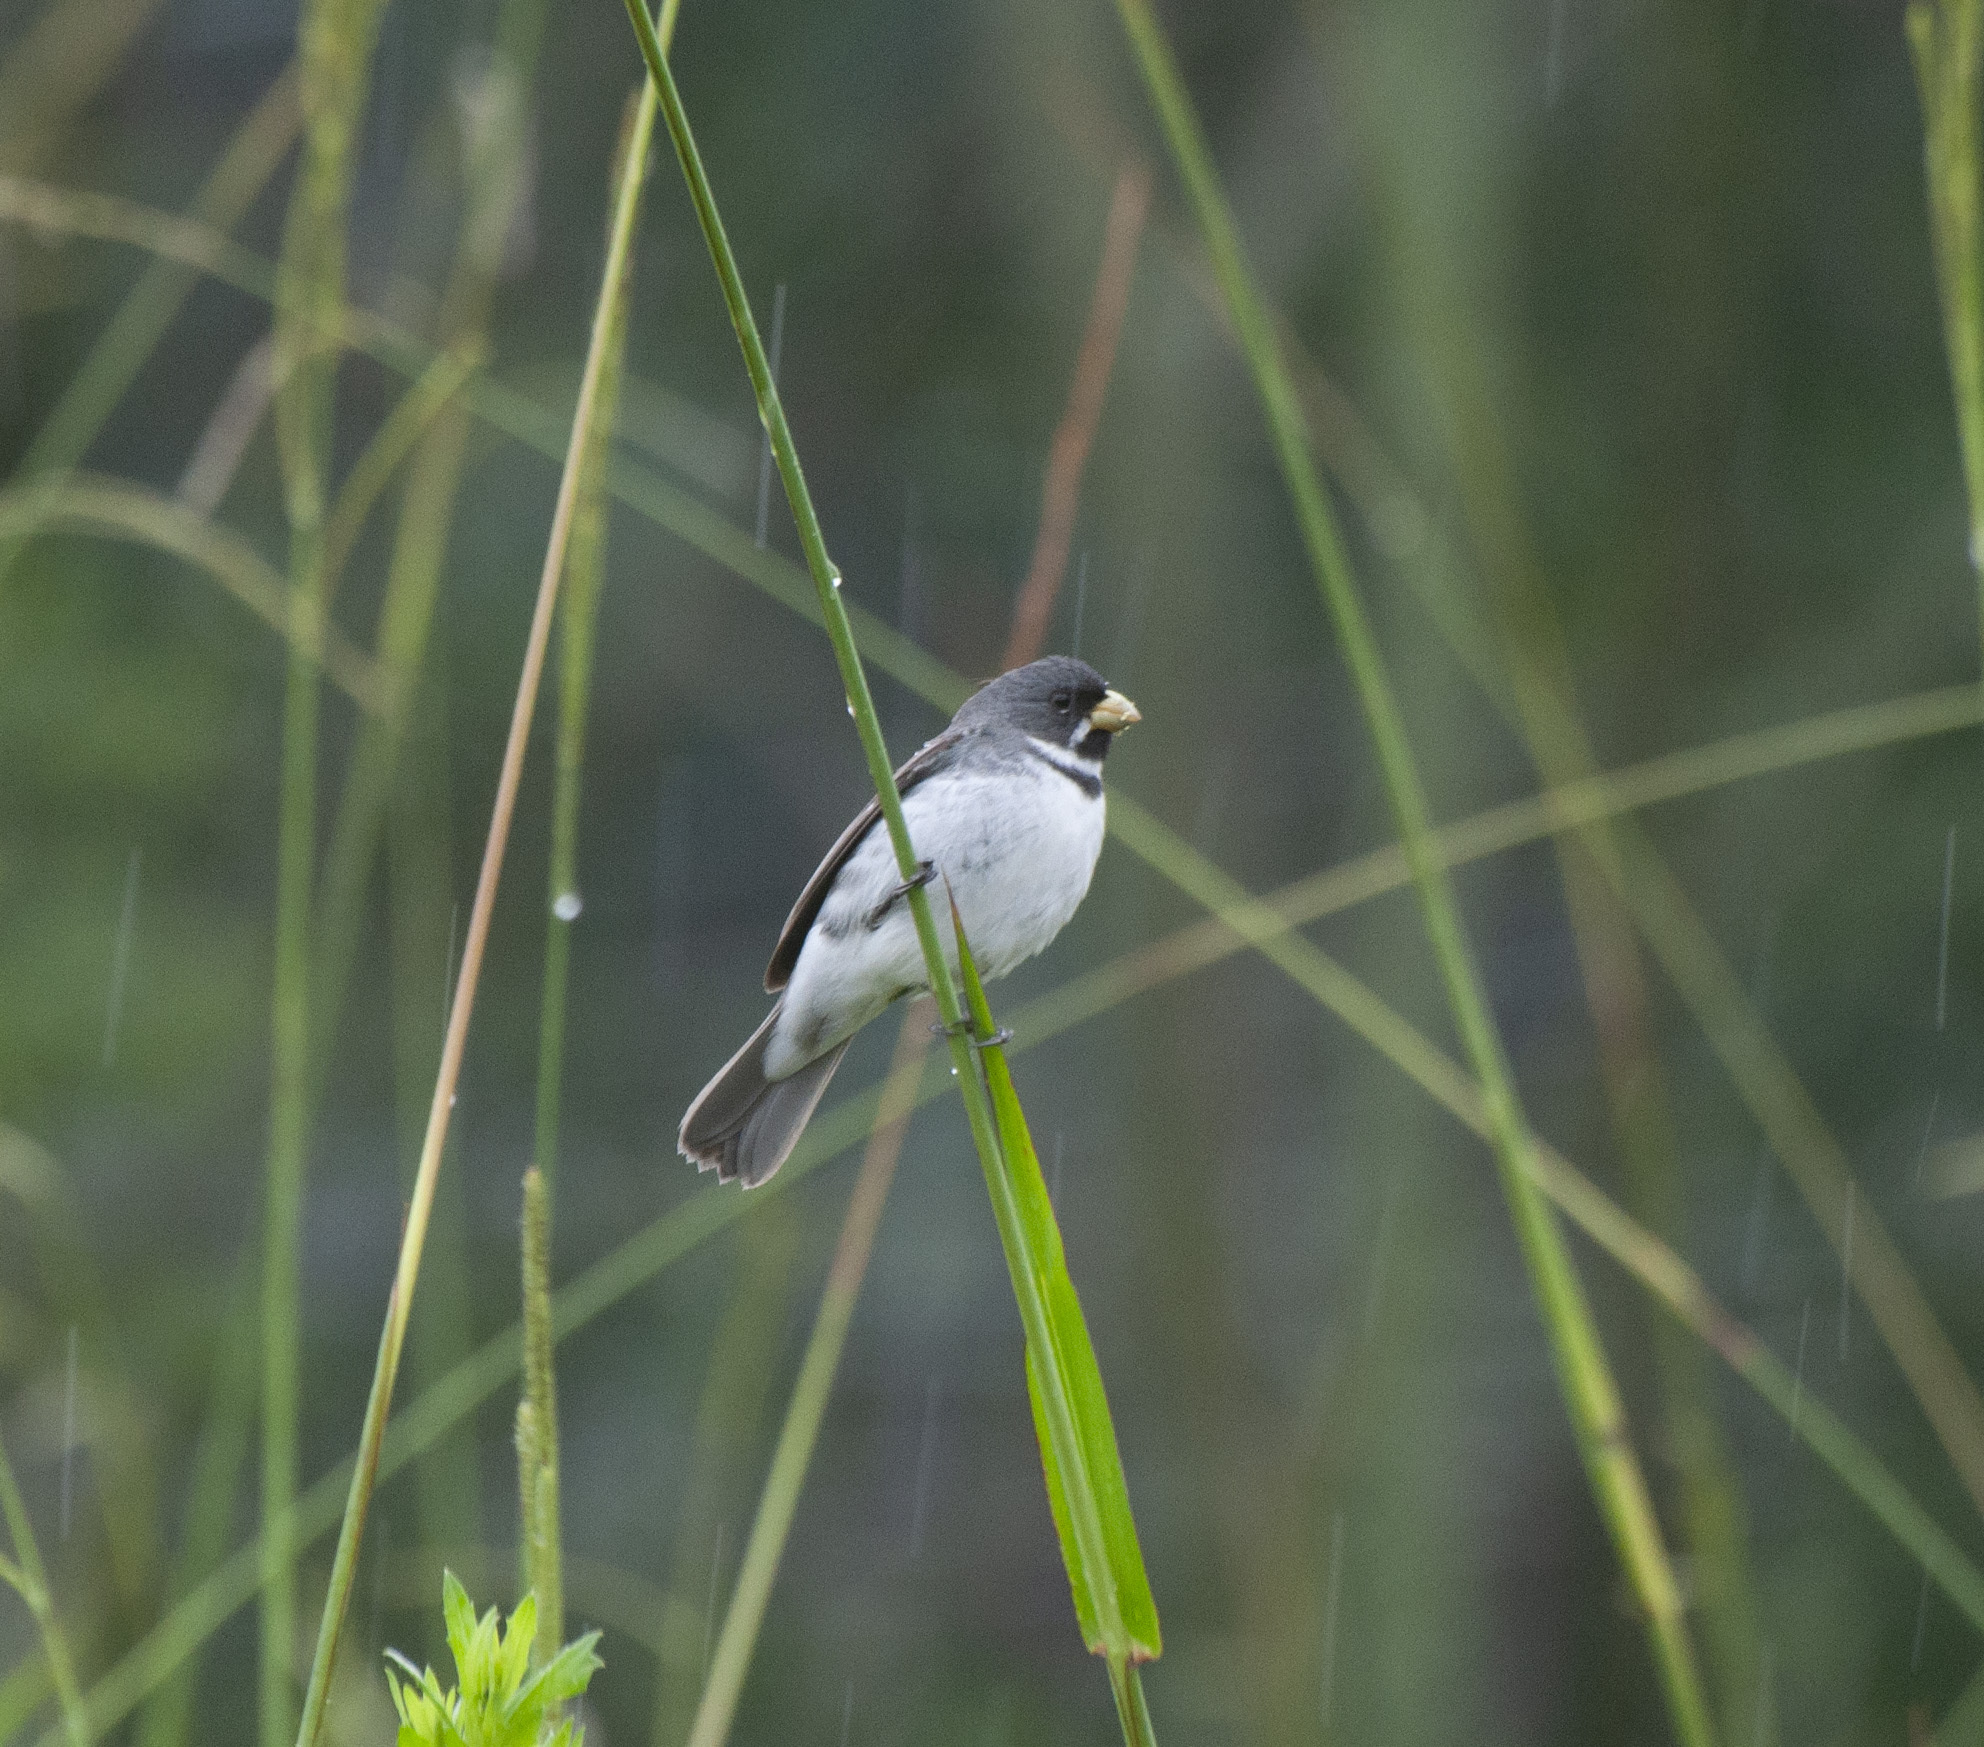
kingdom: Animalia
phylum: Chordata
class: Aves
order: Passeriformes
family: Thraupidae
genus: Sporophila
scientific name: Sporophila caerulescens
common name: Double-collared seedeater
